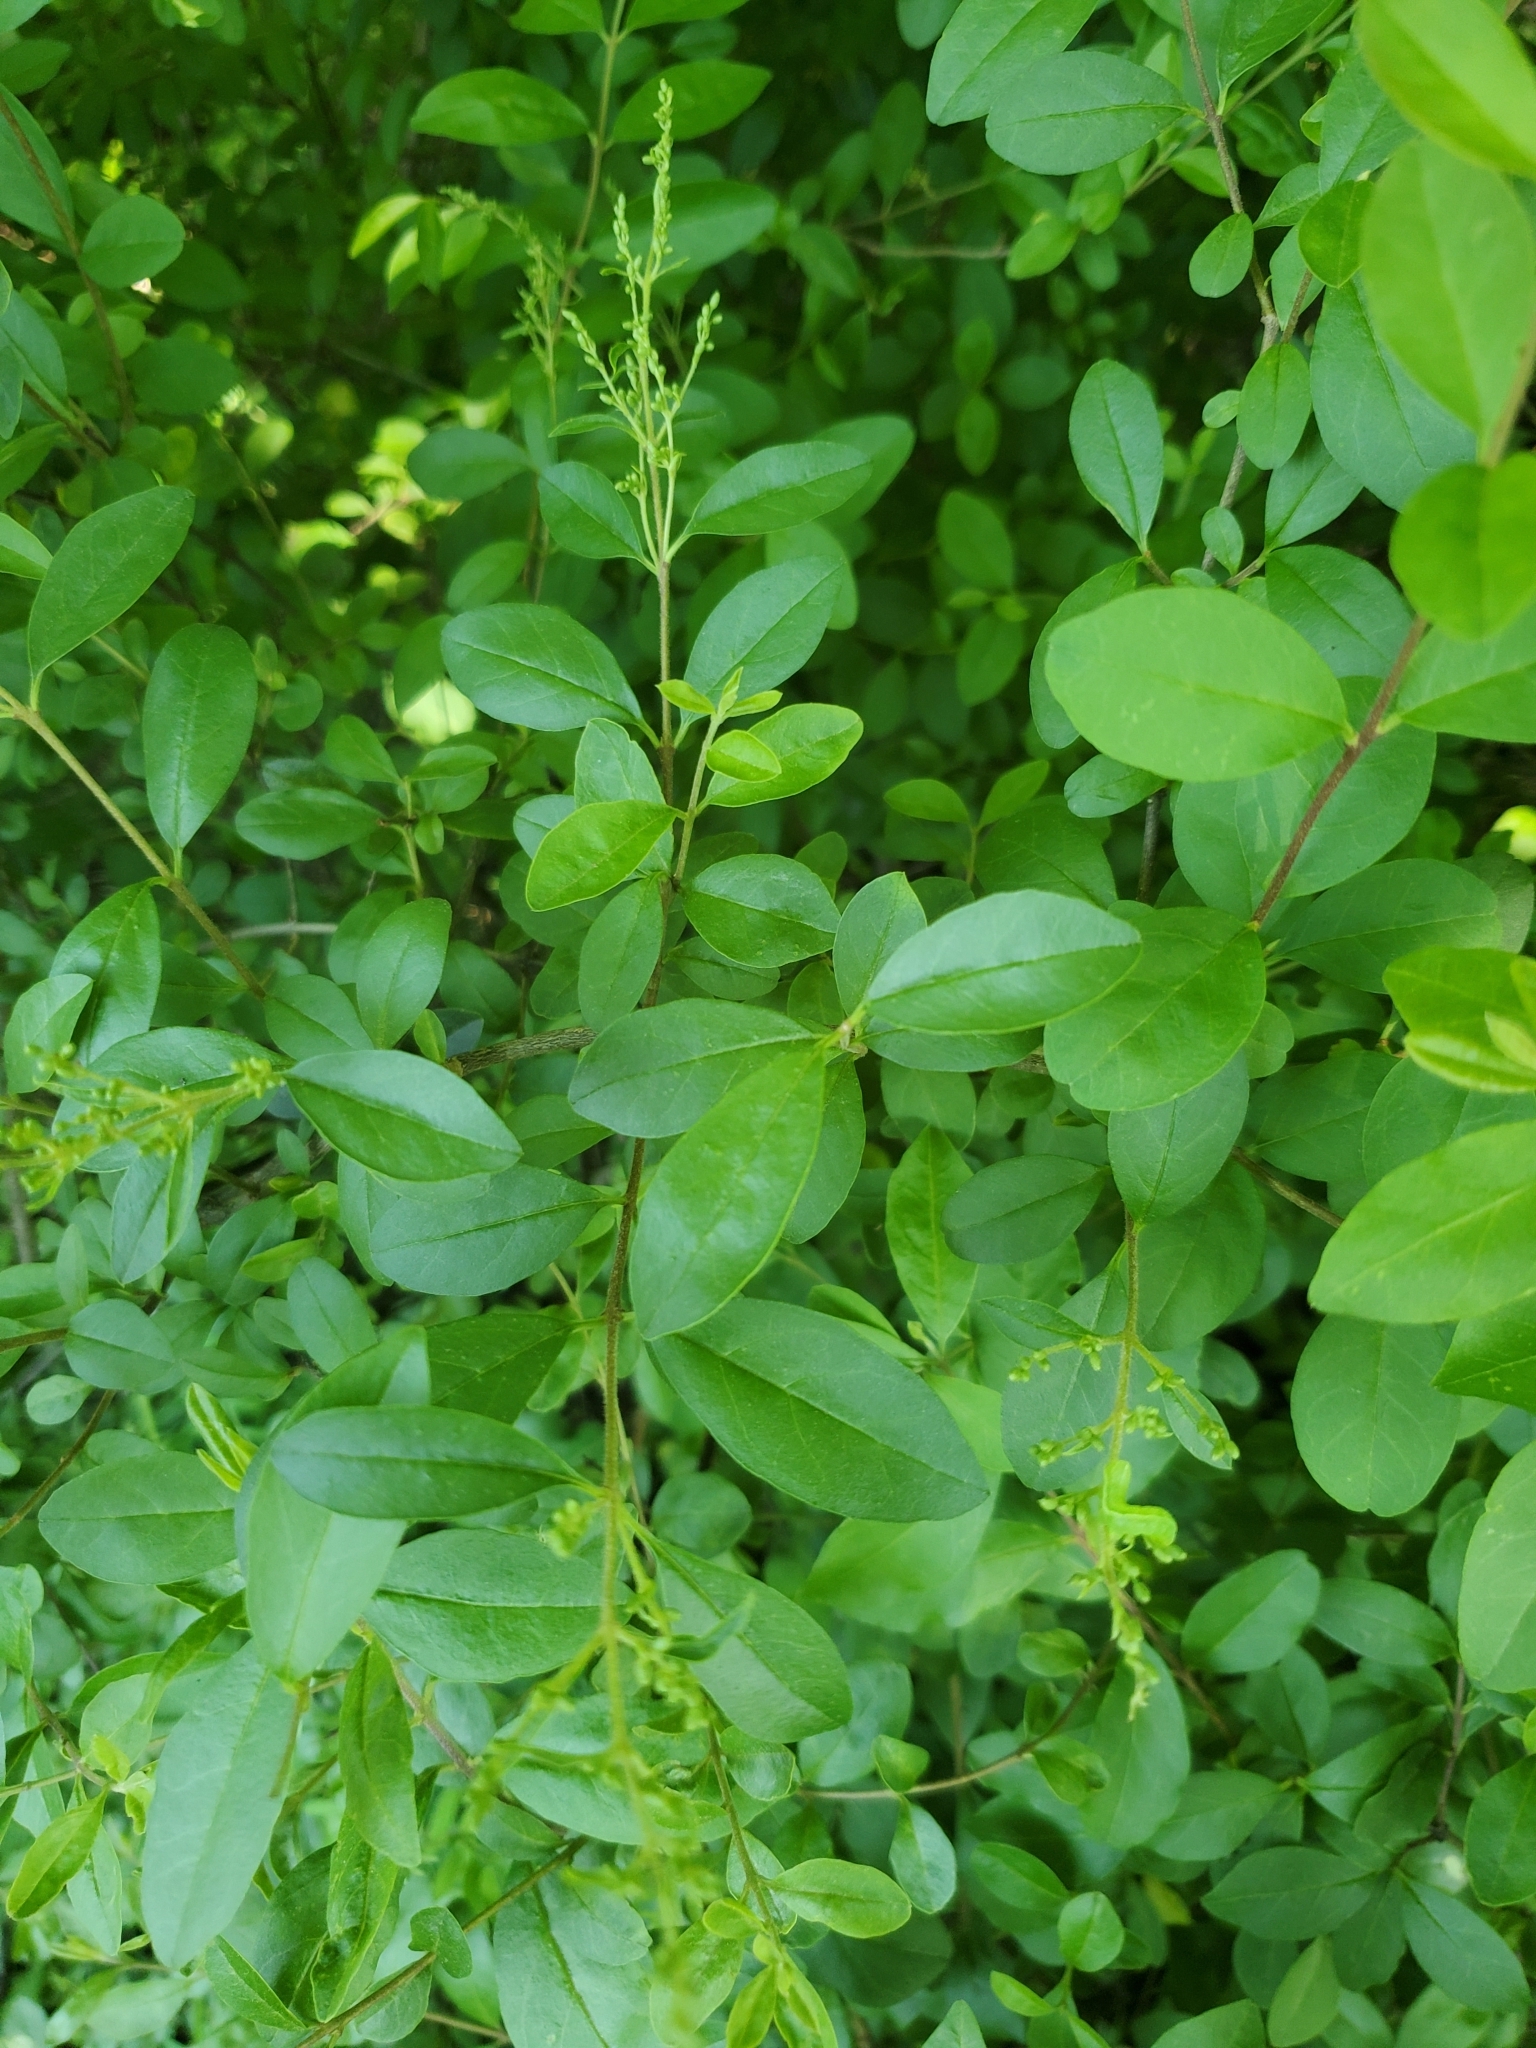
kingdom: Plantae
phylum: Tracheophyta
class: Magnoliopsida
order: Lamiales
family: Oleaceae
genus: Ligustrum
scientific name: Ligustrum sinense
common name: Chinese privet
